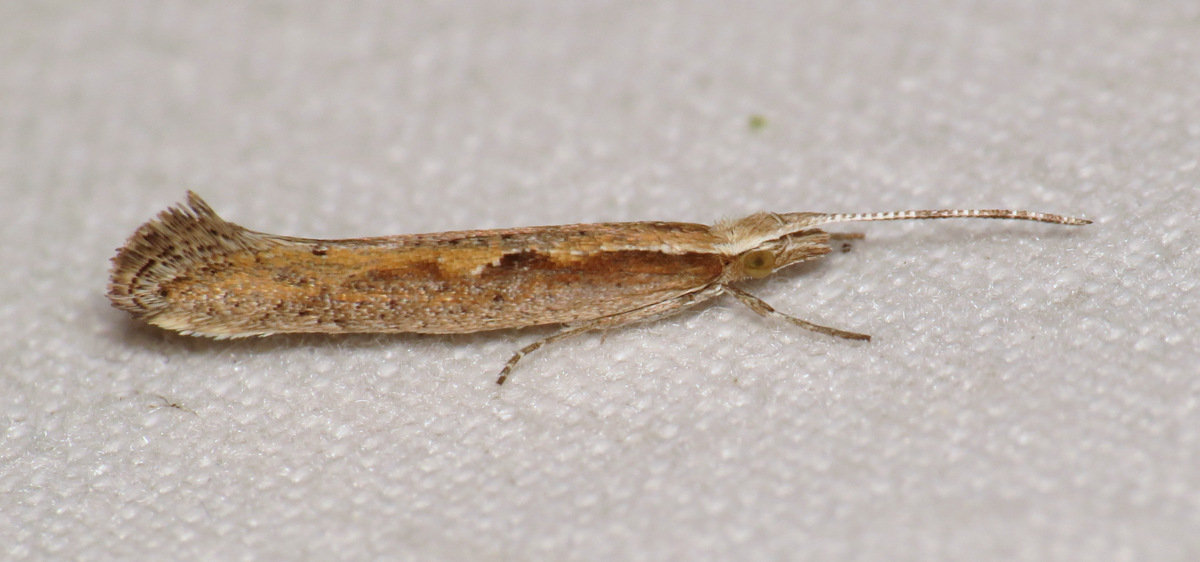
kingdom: Animalia
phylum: Arthropoda
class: Insecta
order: Lepidoptera
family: Plutellidae
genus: Plutella
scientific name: Plutella xylostella
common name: Diamond-back moth
